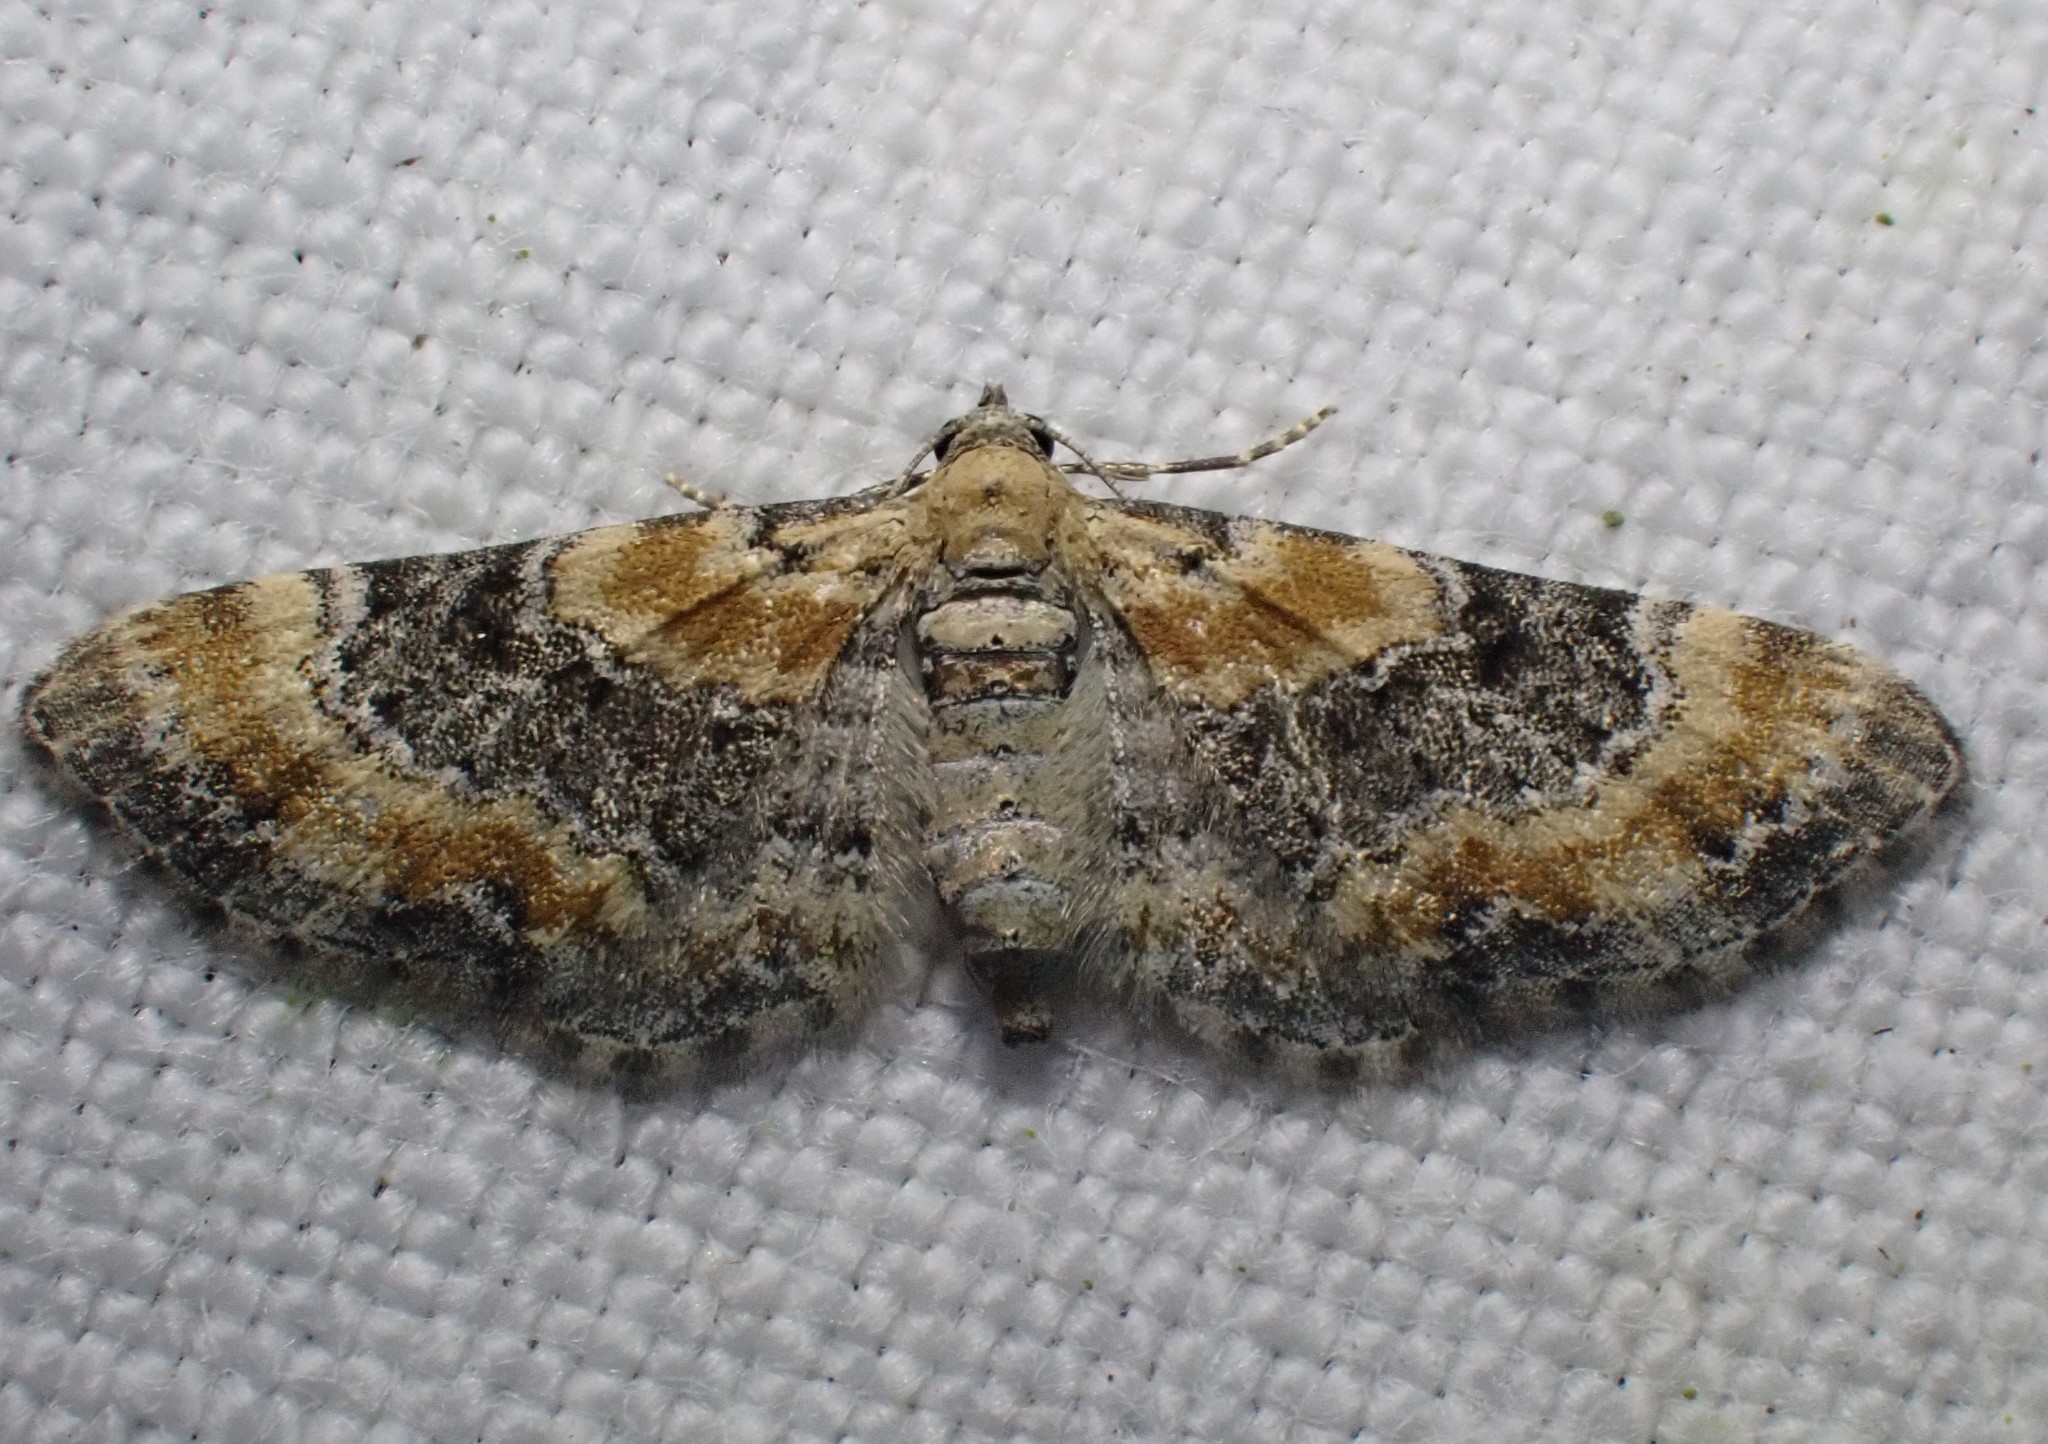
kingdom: Animalia
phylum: Arthropoda
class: Insecta
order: Lepidoptera
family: Geometridae
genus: Eupithecia
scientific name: Eupithecia linariata
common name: Toadflax pug
